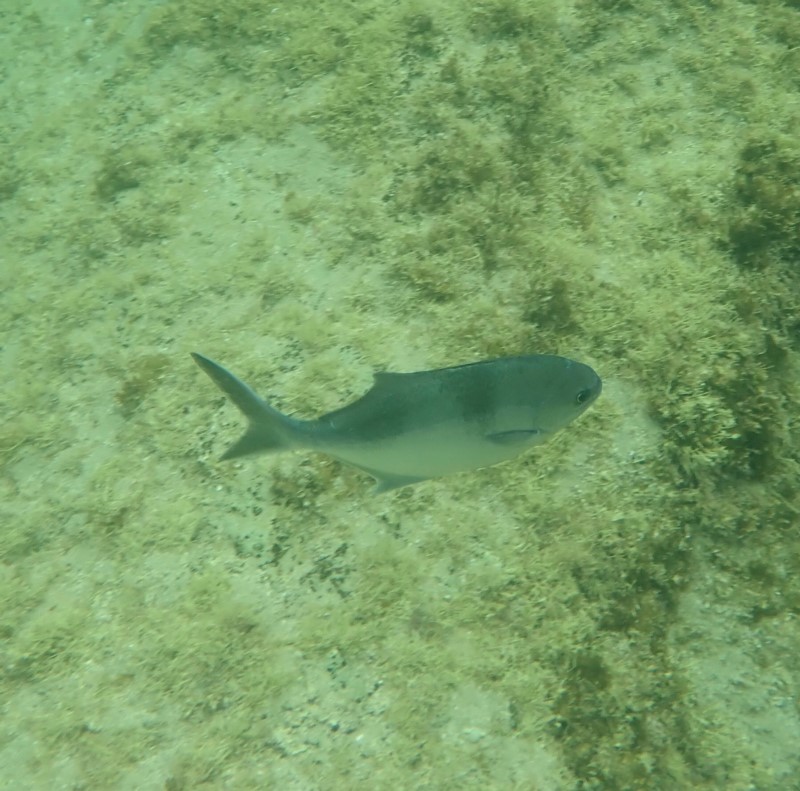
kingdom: Animalia
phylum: Chordata
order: Perciformes
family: Kyphosidae
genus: Scorpis
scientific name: Scorpis aequipinnis
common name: Sea sweep
